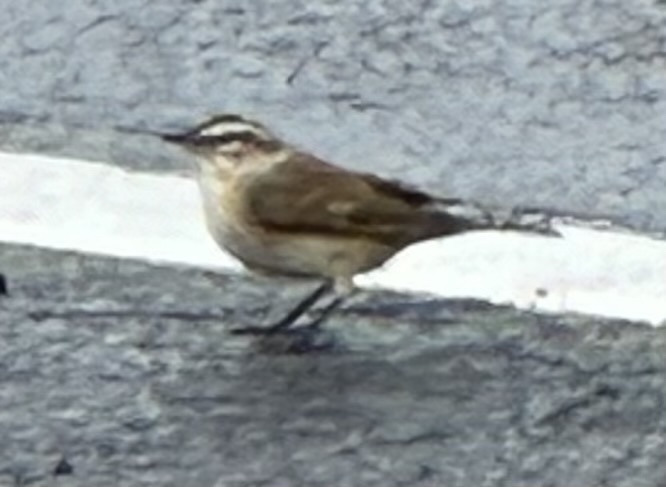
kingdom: Animalia
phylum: Chordata
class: Aves
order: Passeriformes
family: Parulidae
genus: Setophaga
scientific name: Setophaga palmarum
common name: Palm warbler
